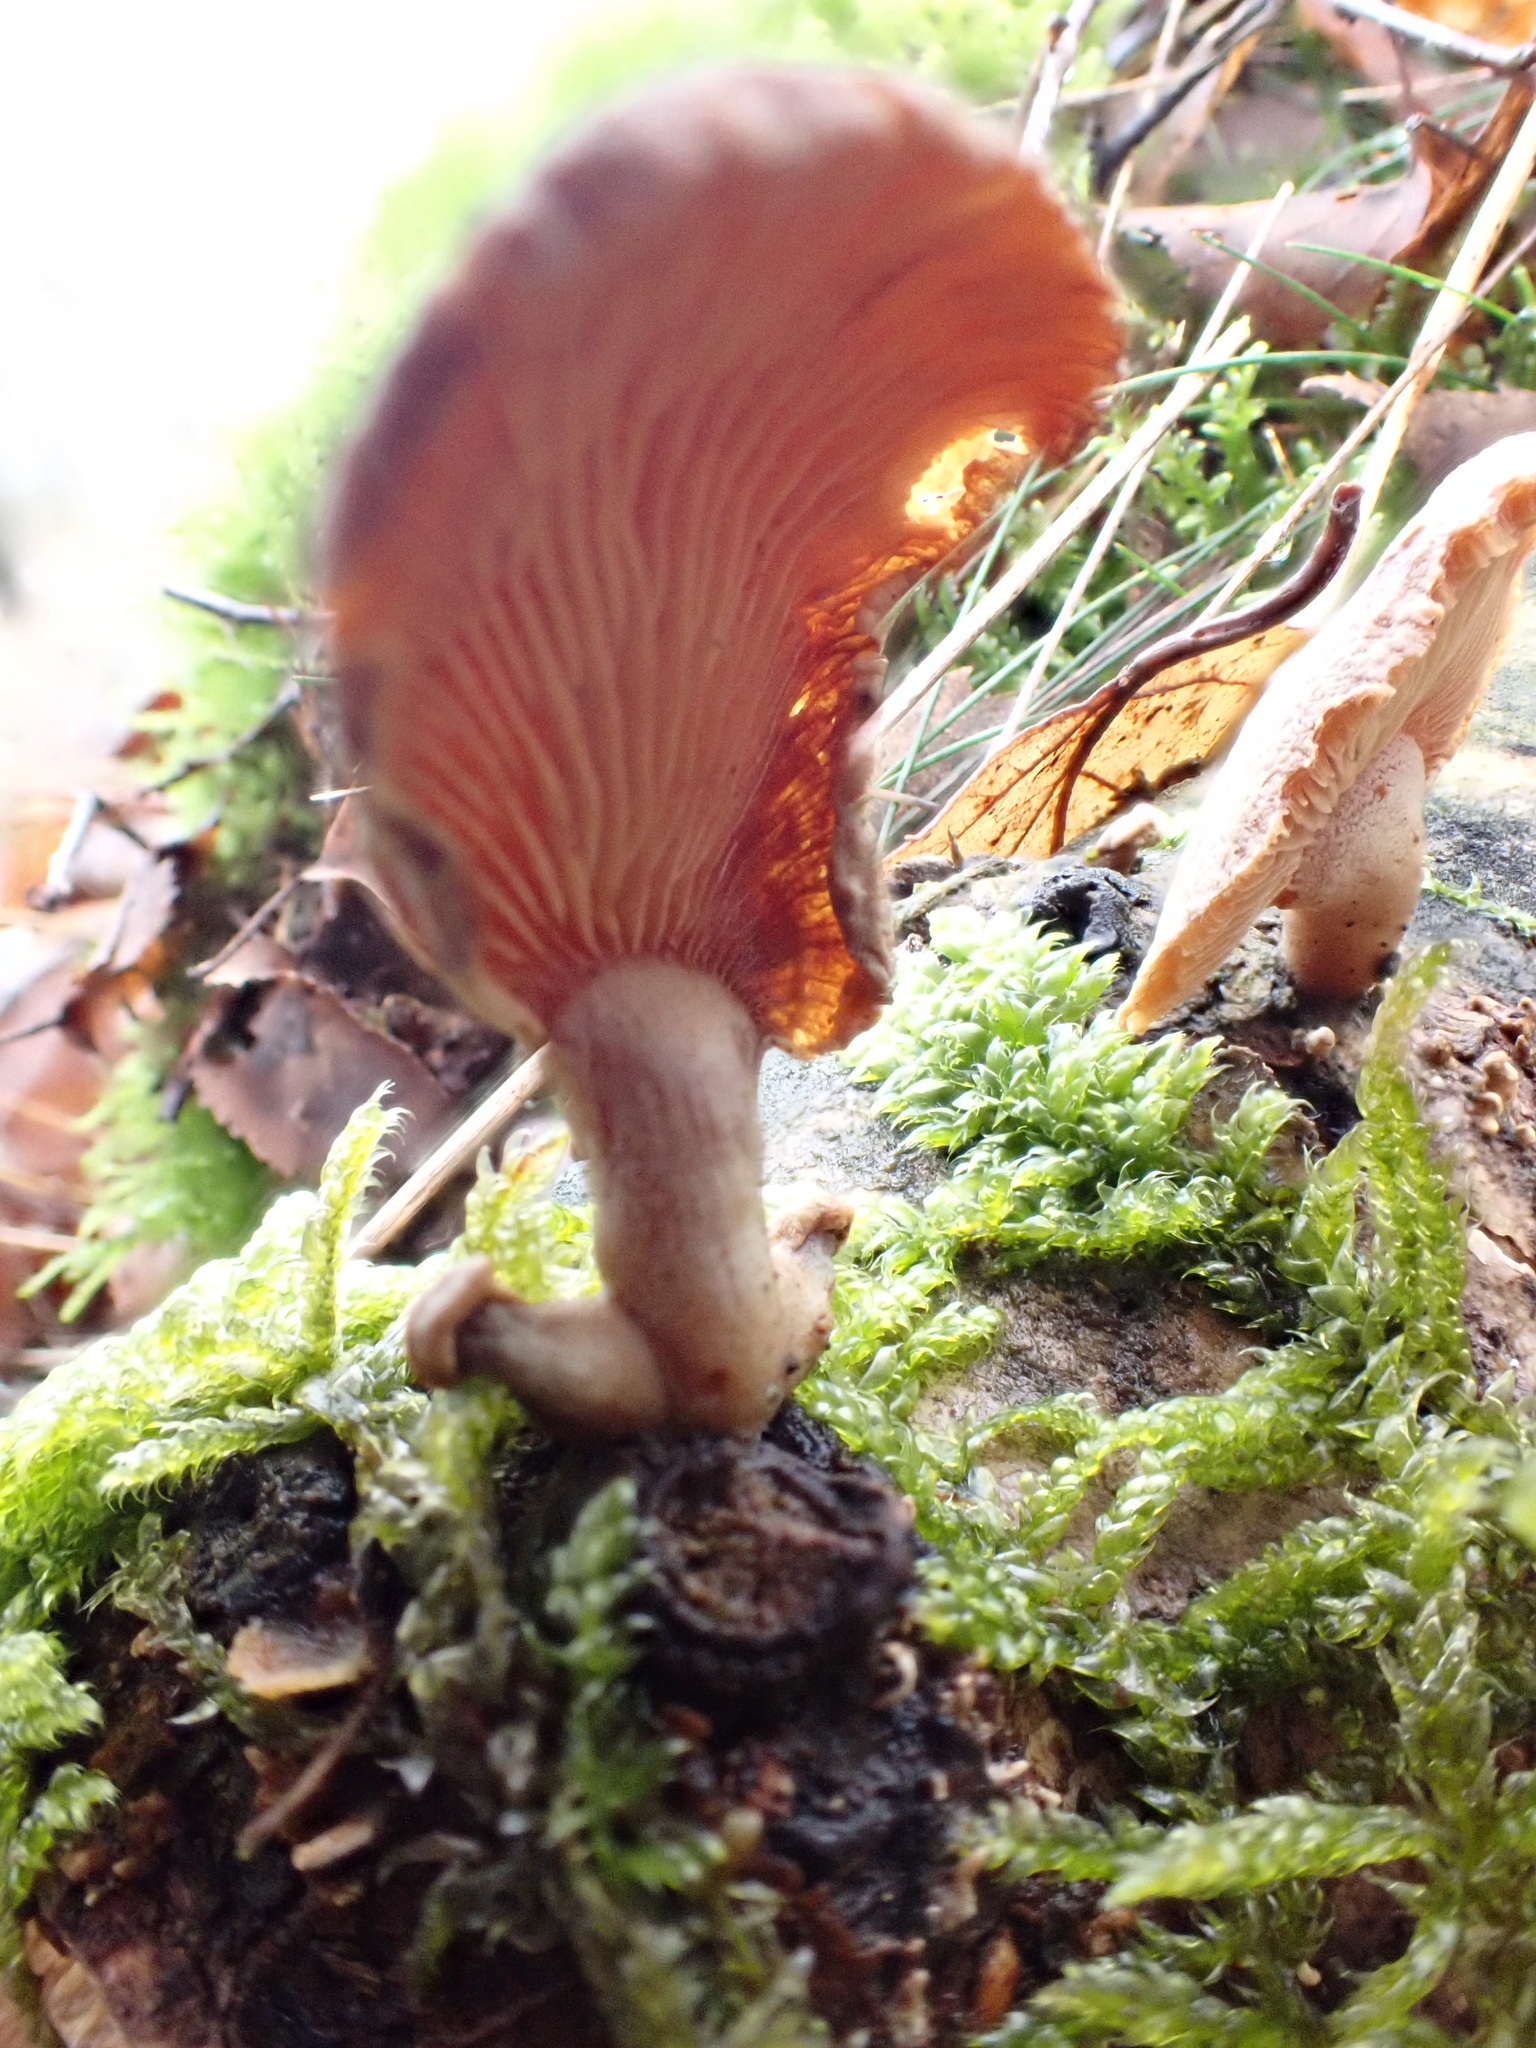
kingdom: Fungi
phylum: Basidiomycota
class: Agaricomycetes
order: Agaricales
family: Mycenaceae
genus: Panellus
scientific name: Panellus stipticus
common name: Bitter oysterling
